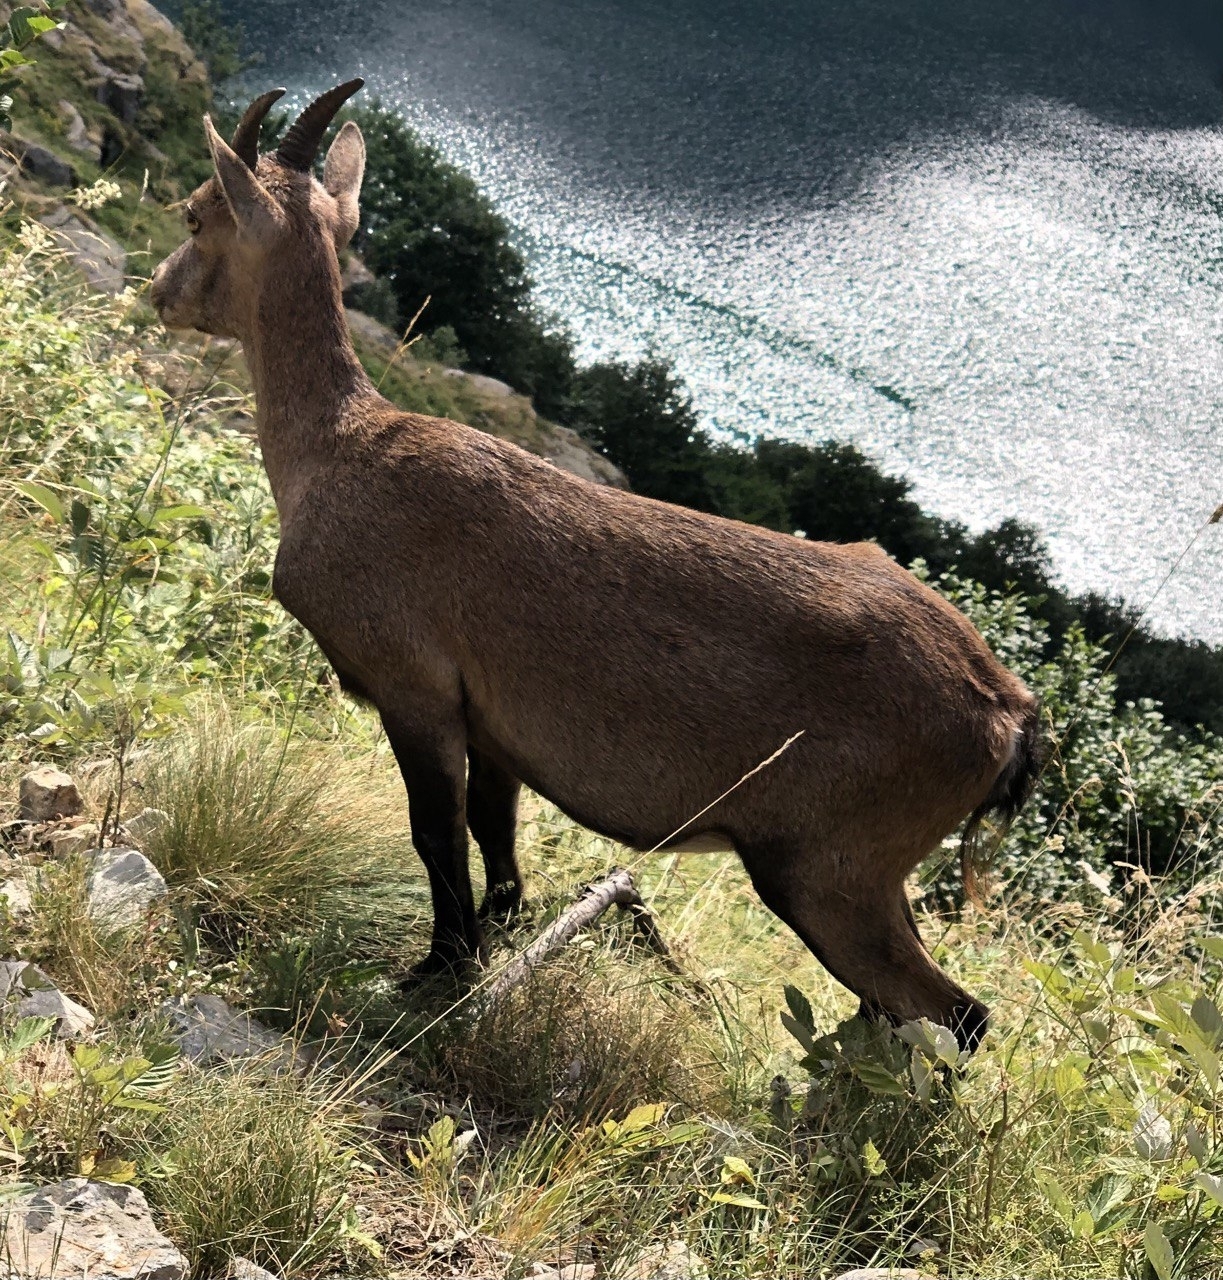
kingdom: Animalia
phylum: Chordata
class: Mammalia
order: Artiodactyla
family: Bovidae
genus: Capra
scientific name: Capra ibex
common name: Alpine ibex
